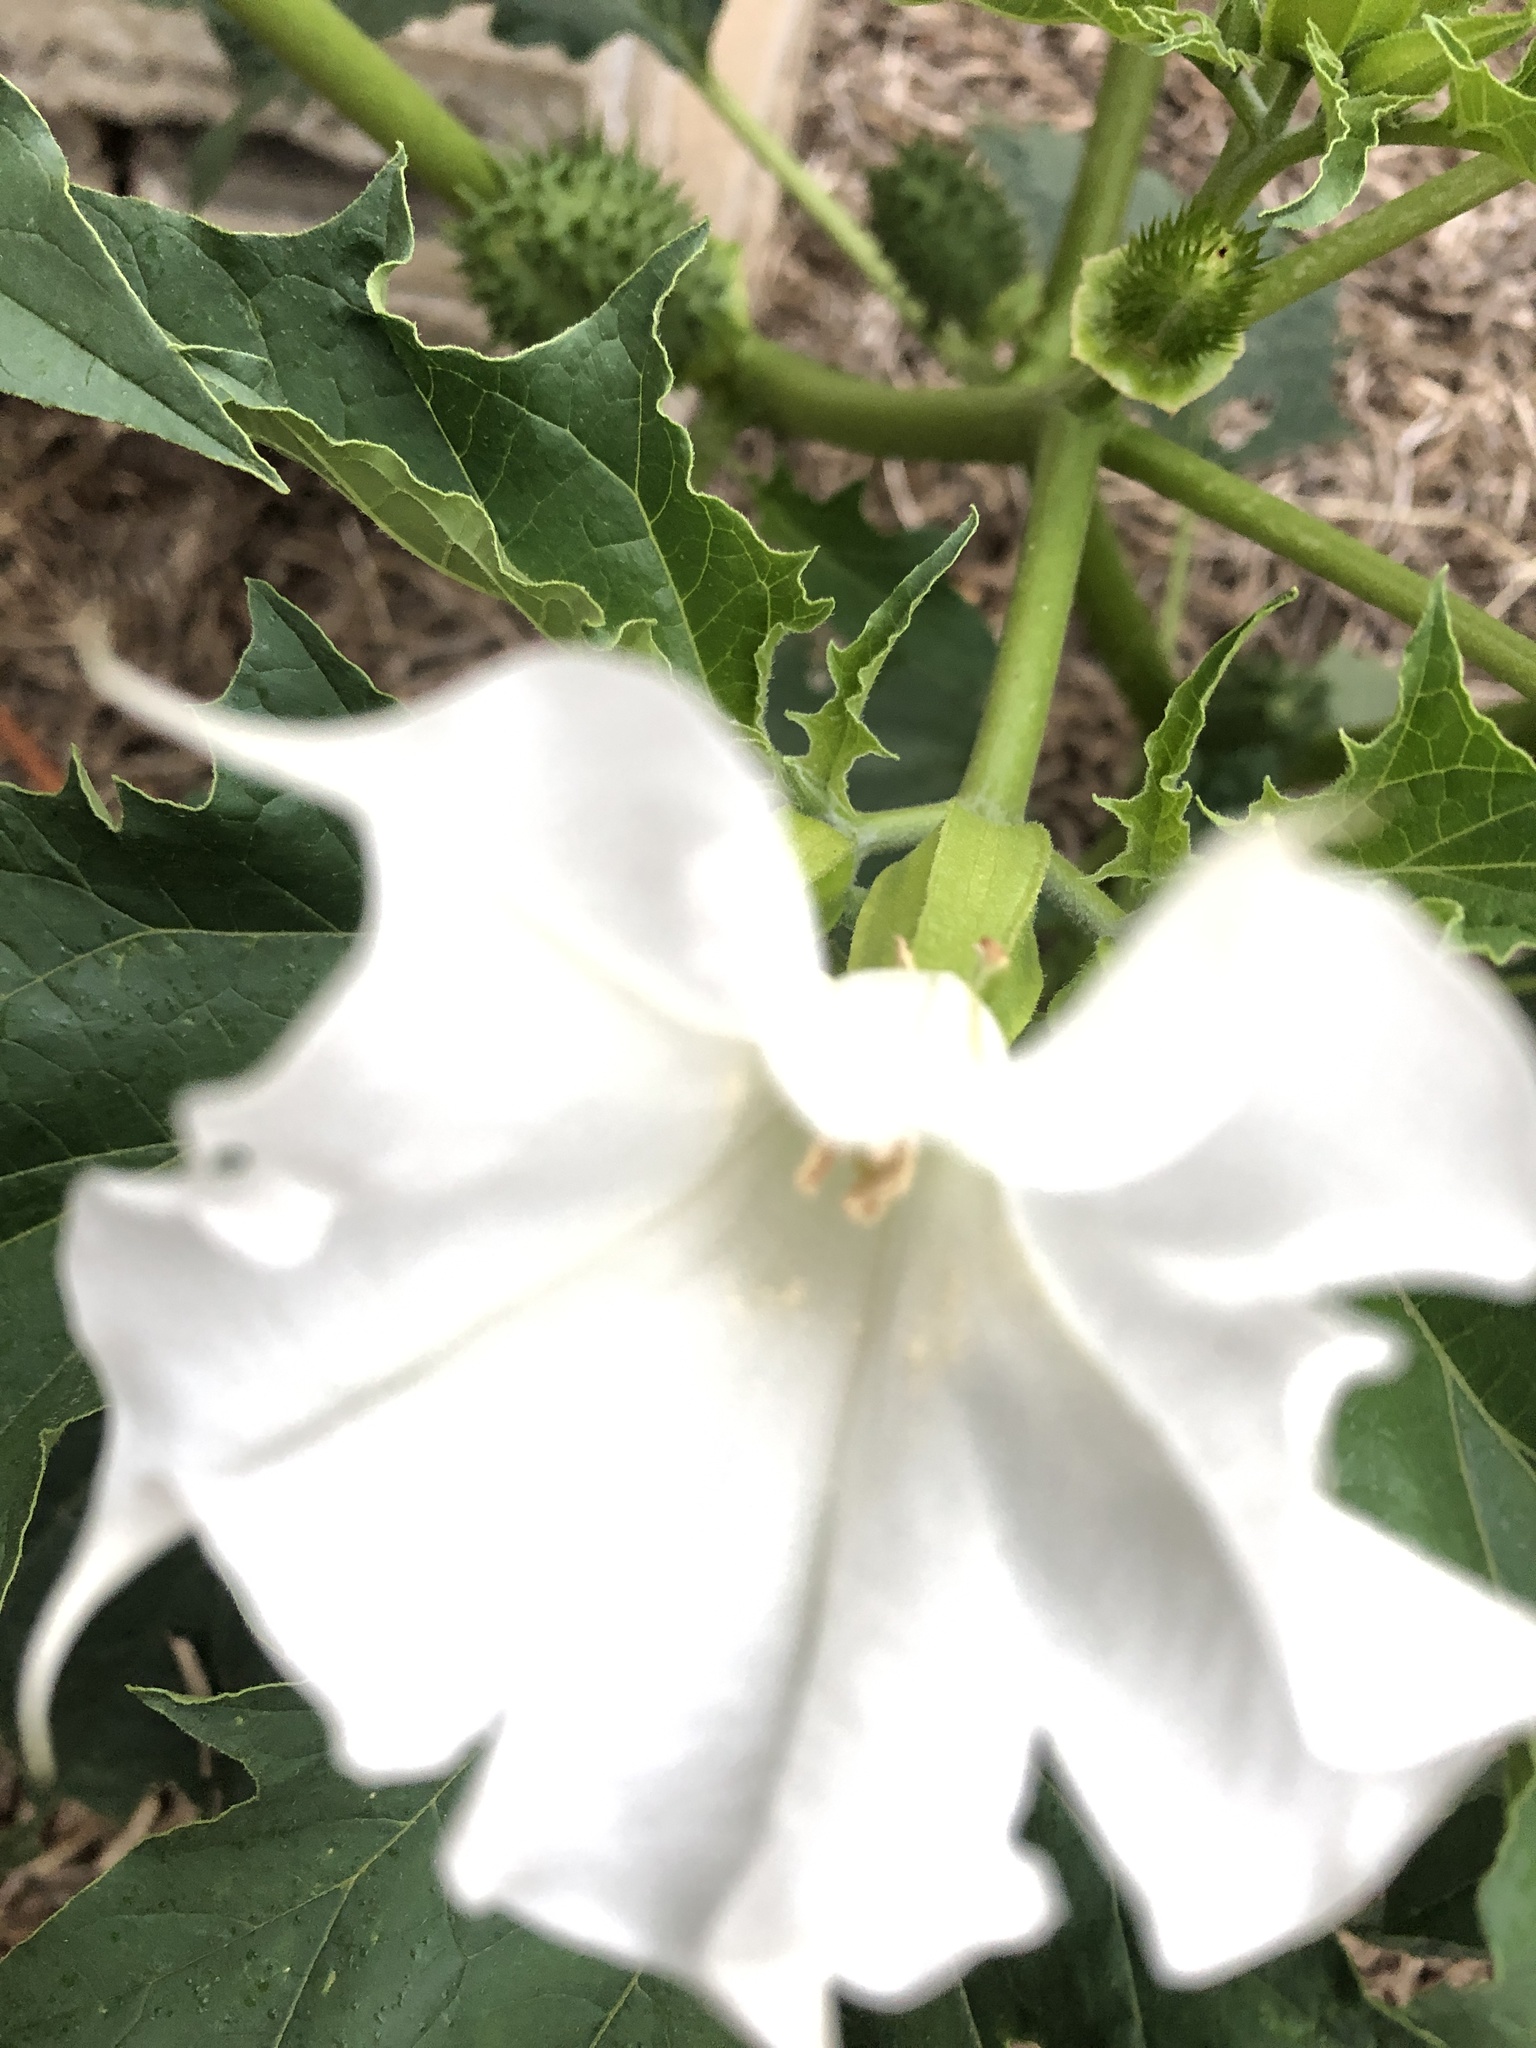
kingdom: Plantae
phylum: Tracheophyta
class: Magnoliopsida
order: Solanales
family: Solanaceae
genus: Datura
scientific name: Datura stramonium
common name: Thorn-apple
